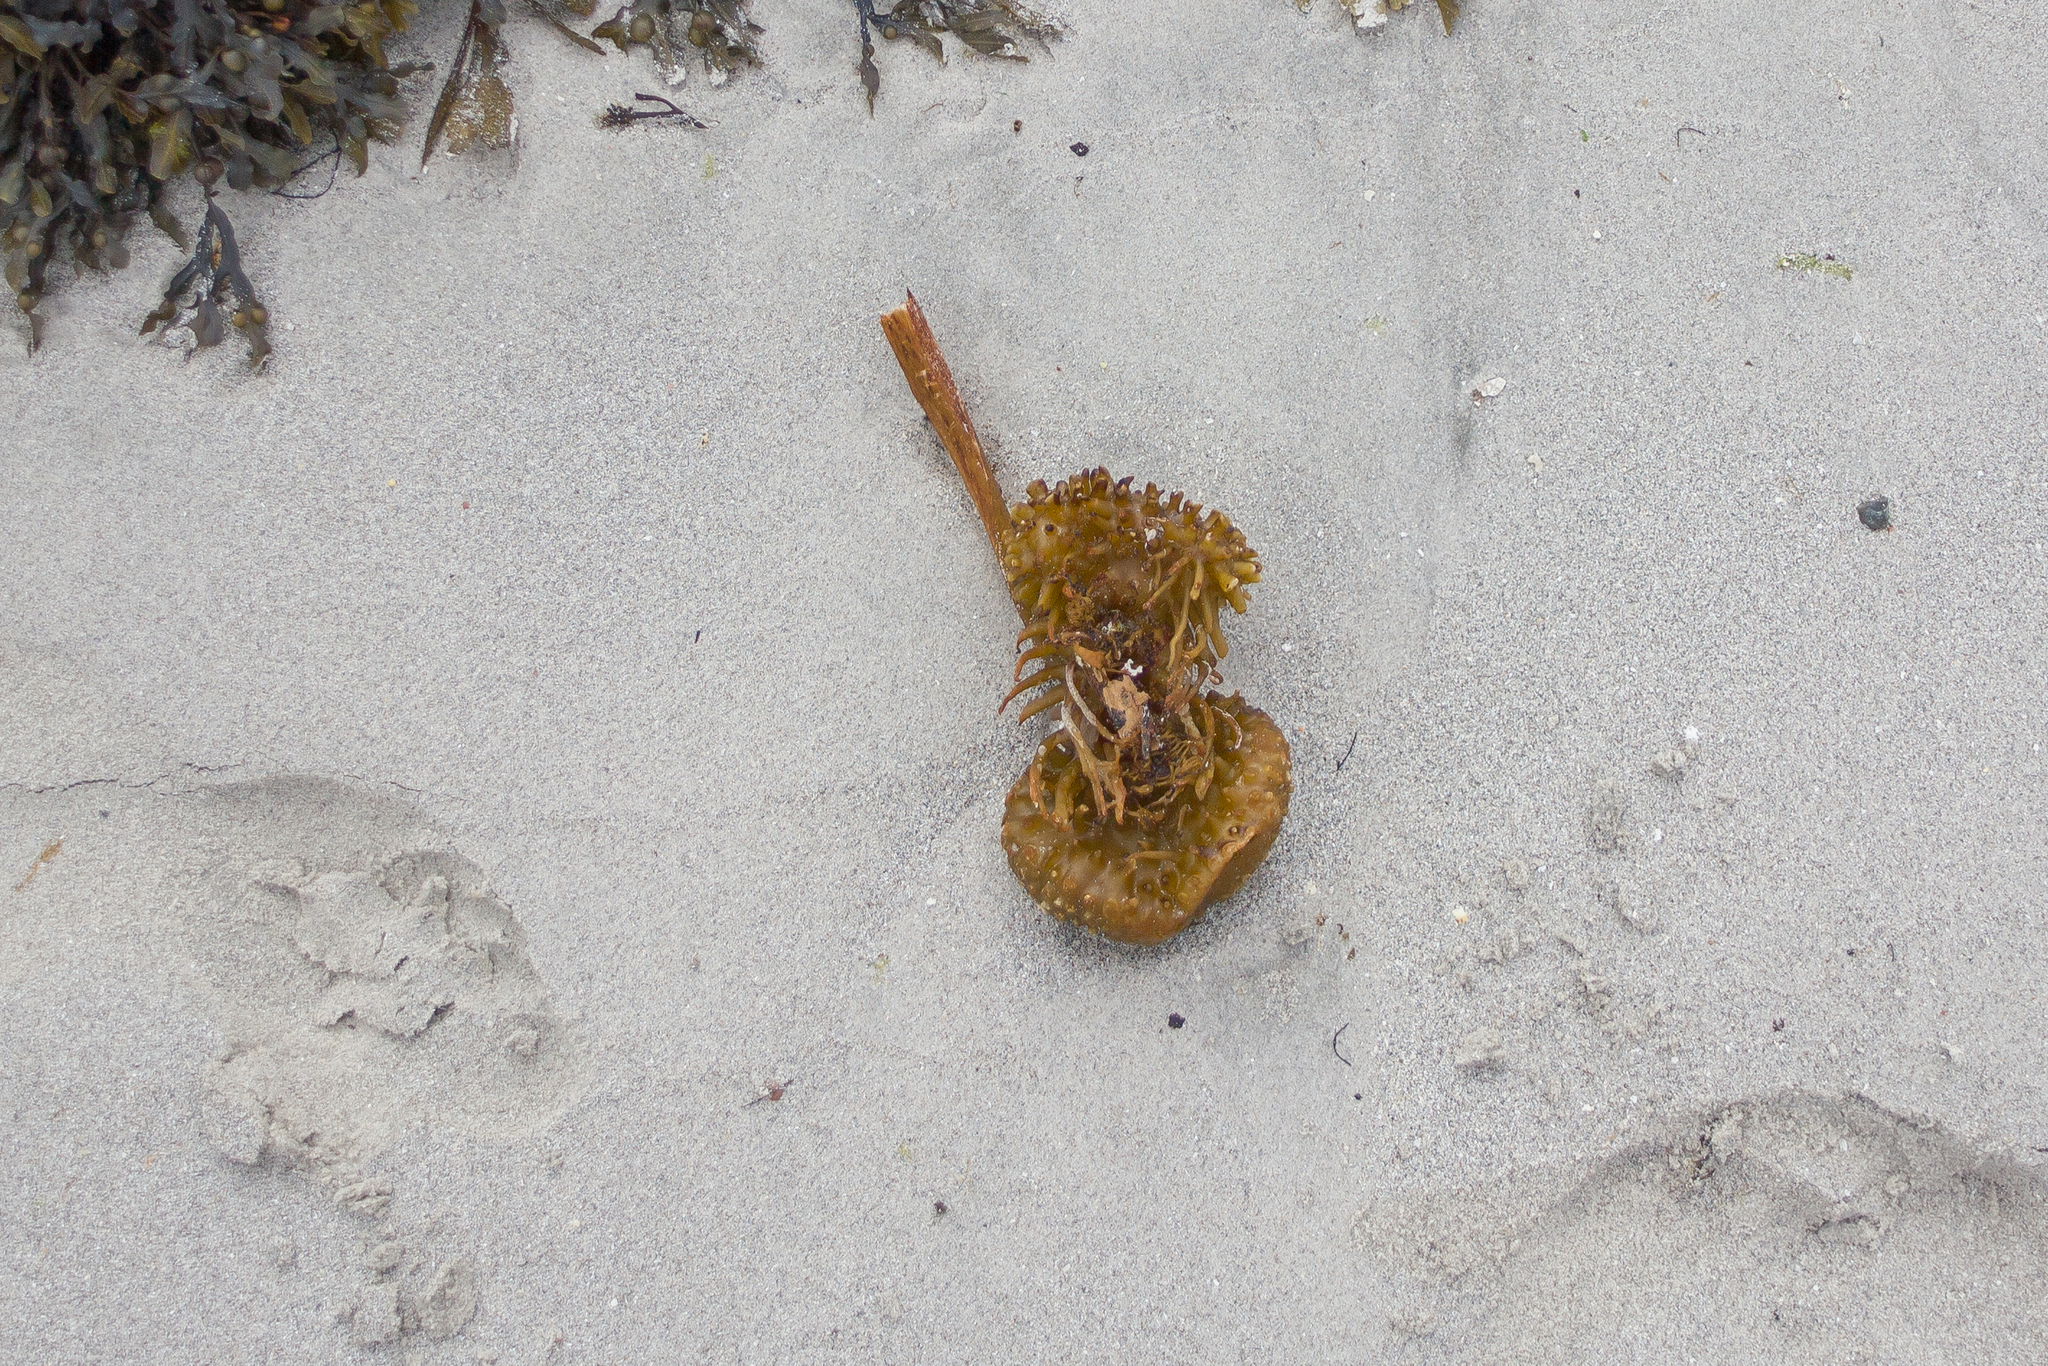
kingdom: Chromista
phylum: Ochrophyta
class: Phaeophyceae
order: Tilopteridales
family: Phyllariaceae
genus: Saccorhiza
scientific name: Saccorhiza polyschides
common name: Furbelows
